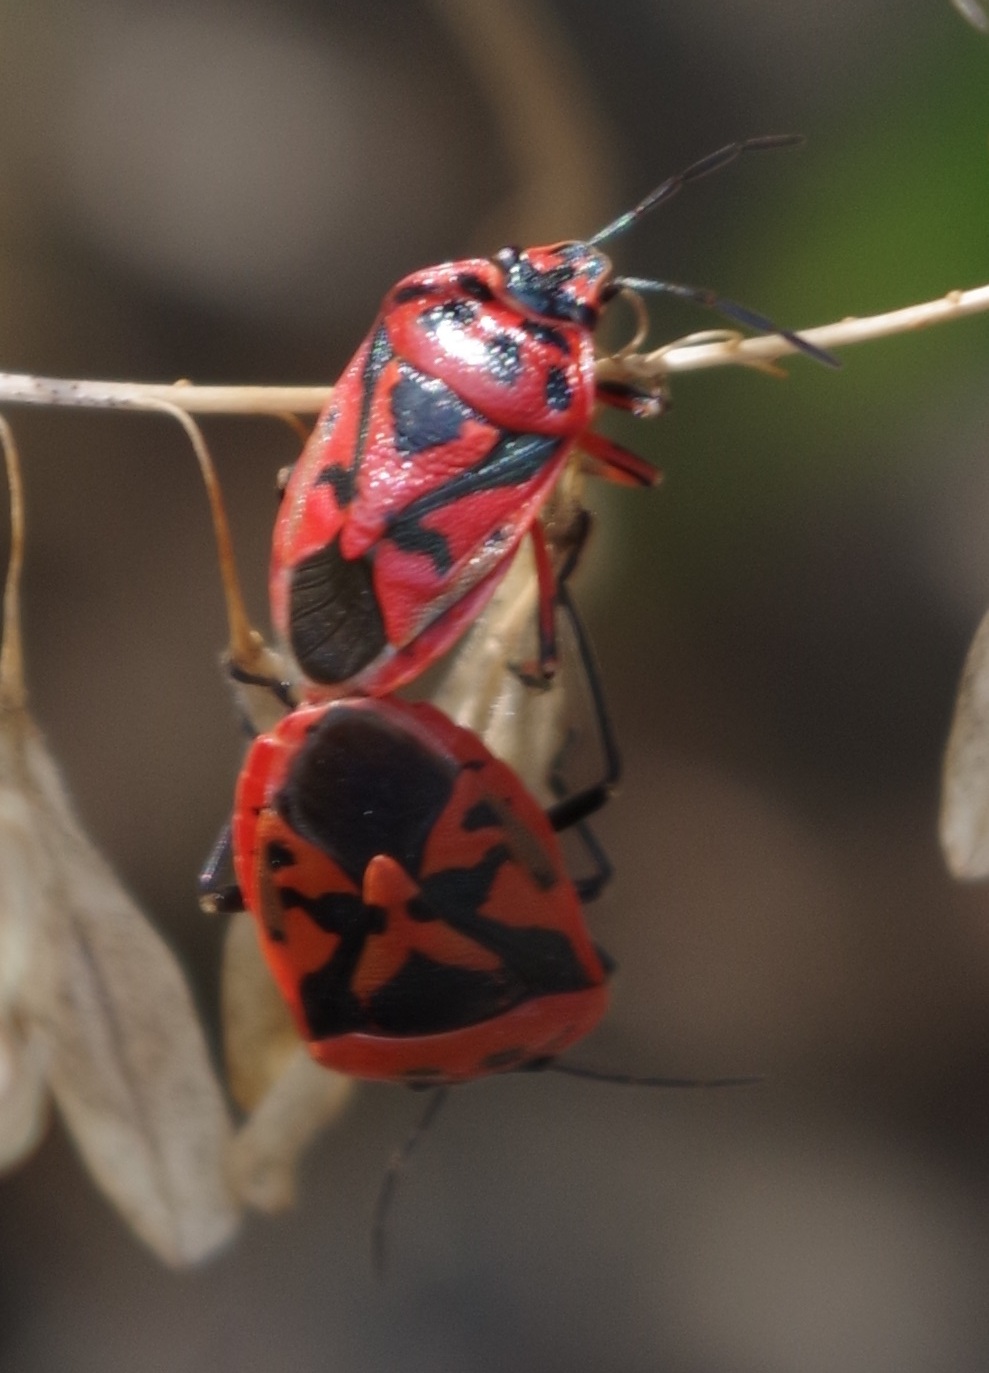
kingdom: Animalia
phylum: Arthropoda
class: Insecta
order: Hemiptera
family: Pentatomidae
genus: Eurydema
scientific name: Eurydema ornata
